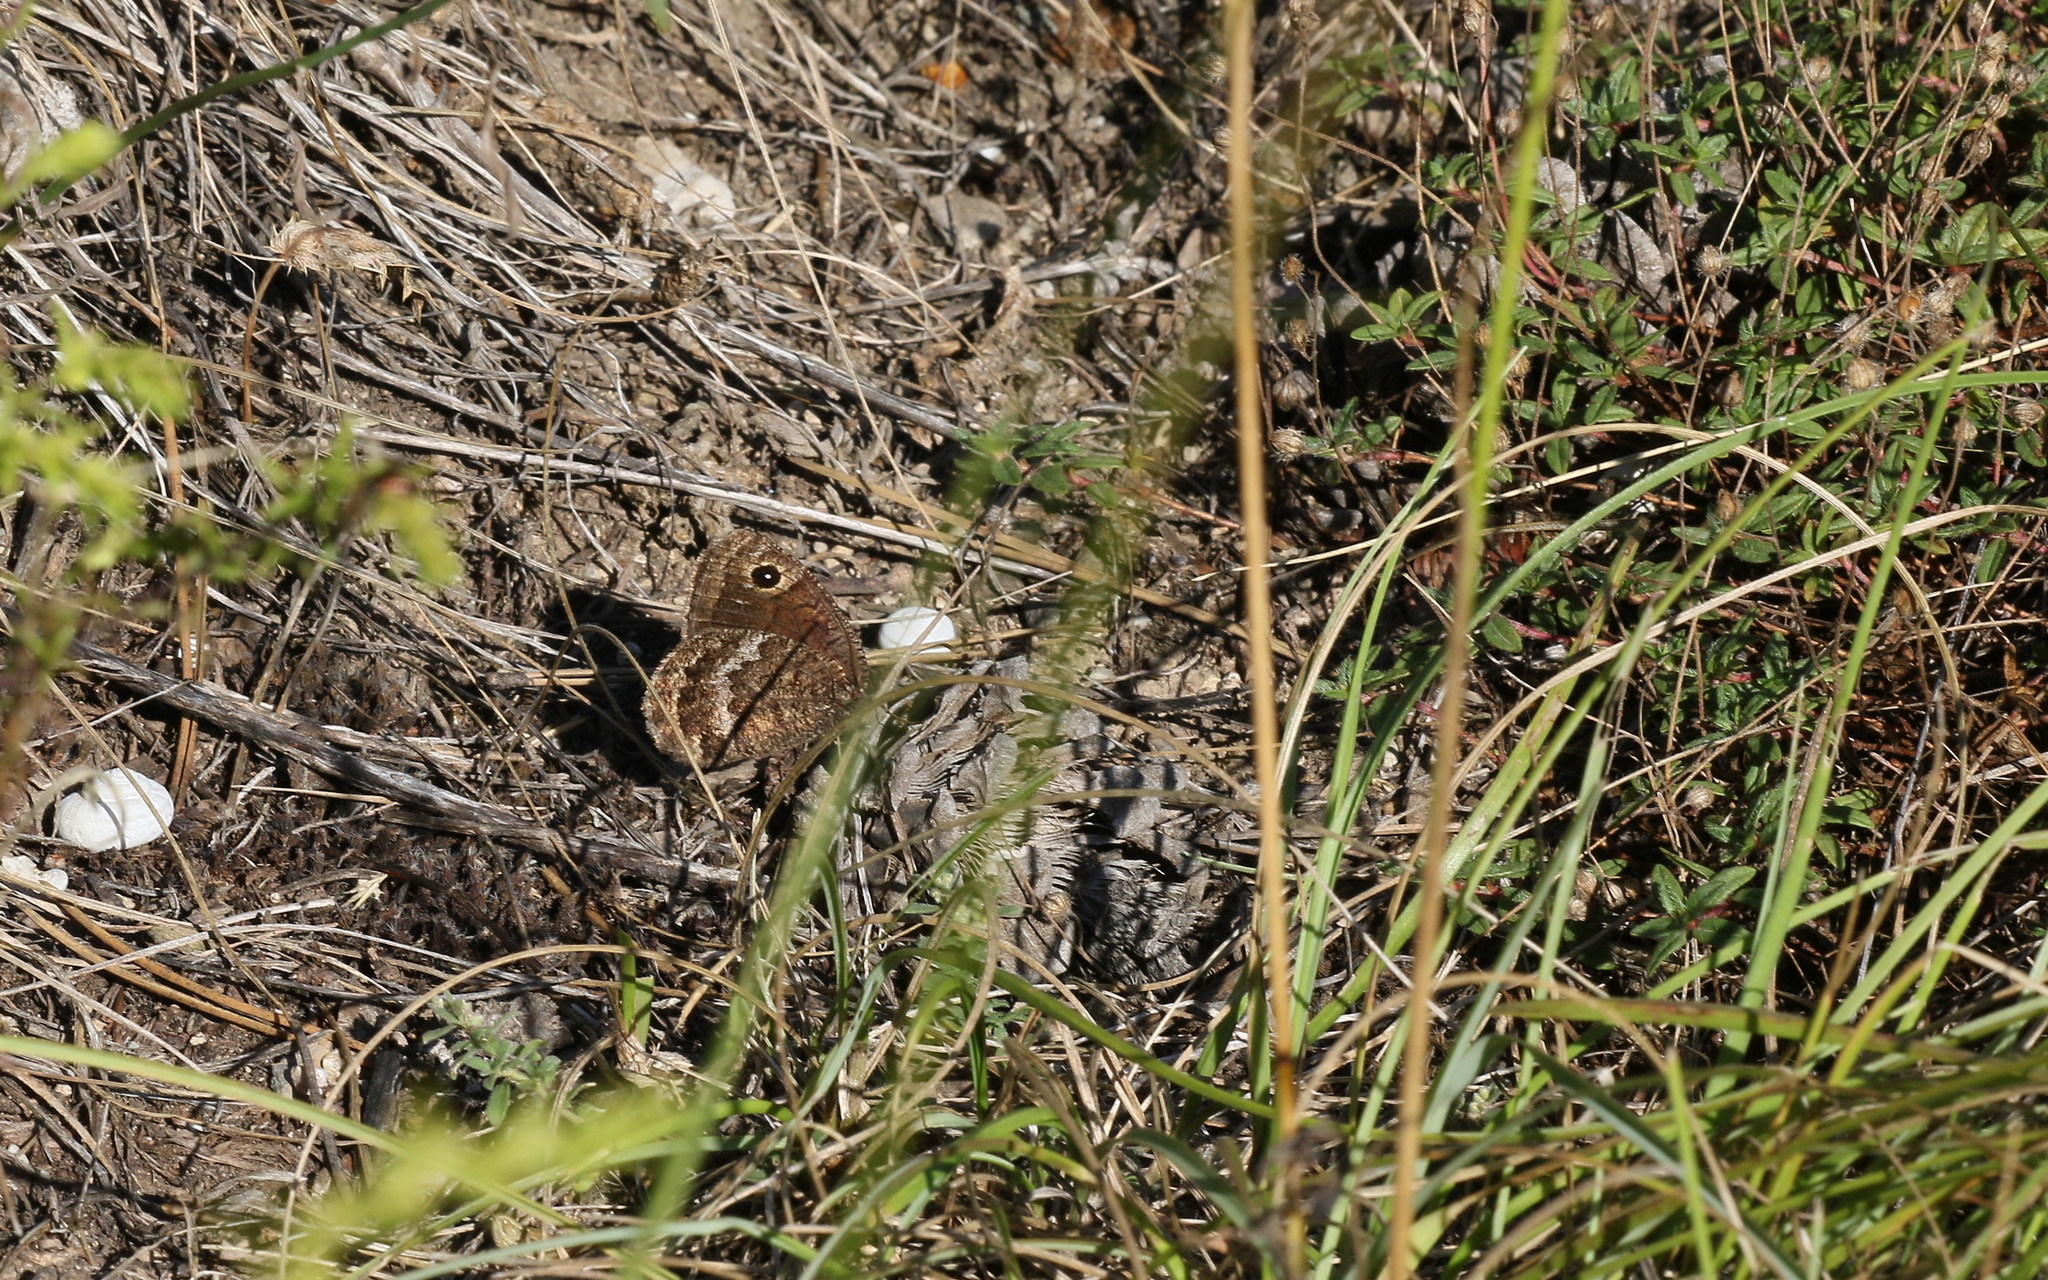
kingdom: Animalia
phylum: Arthropoda
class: Insecta
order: Lepidoptera
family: Nymphalidae
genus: Satyrus
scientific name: Satyrus actaea
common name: Black satyr
